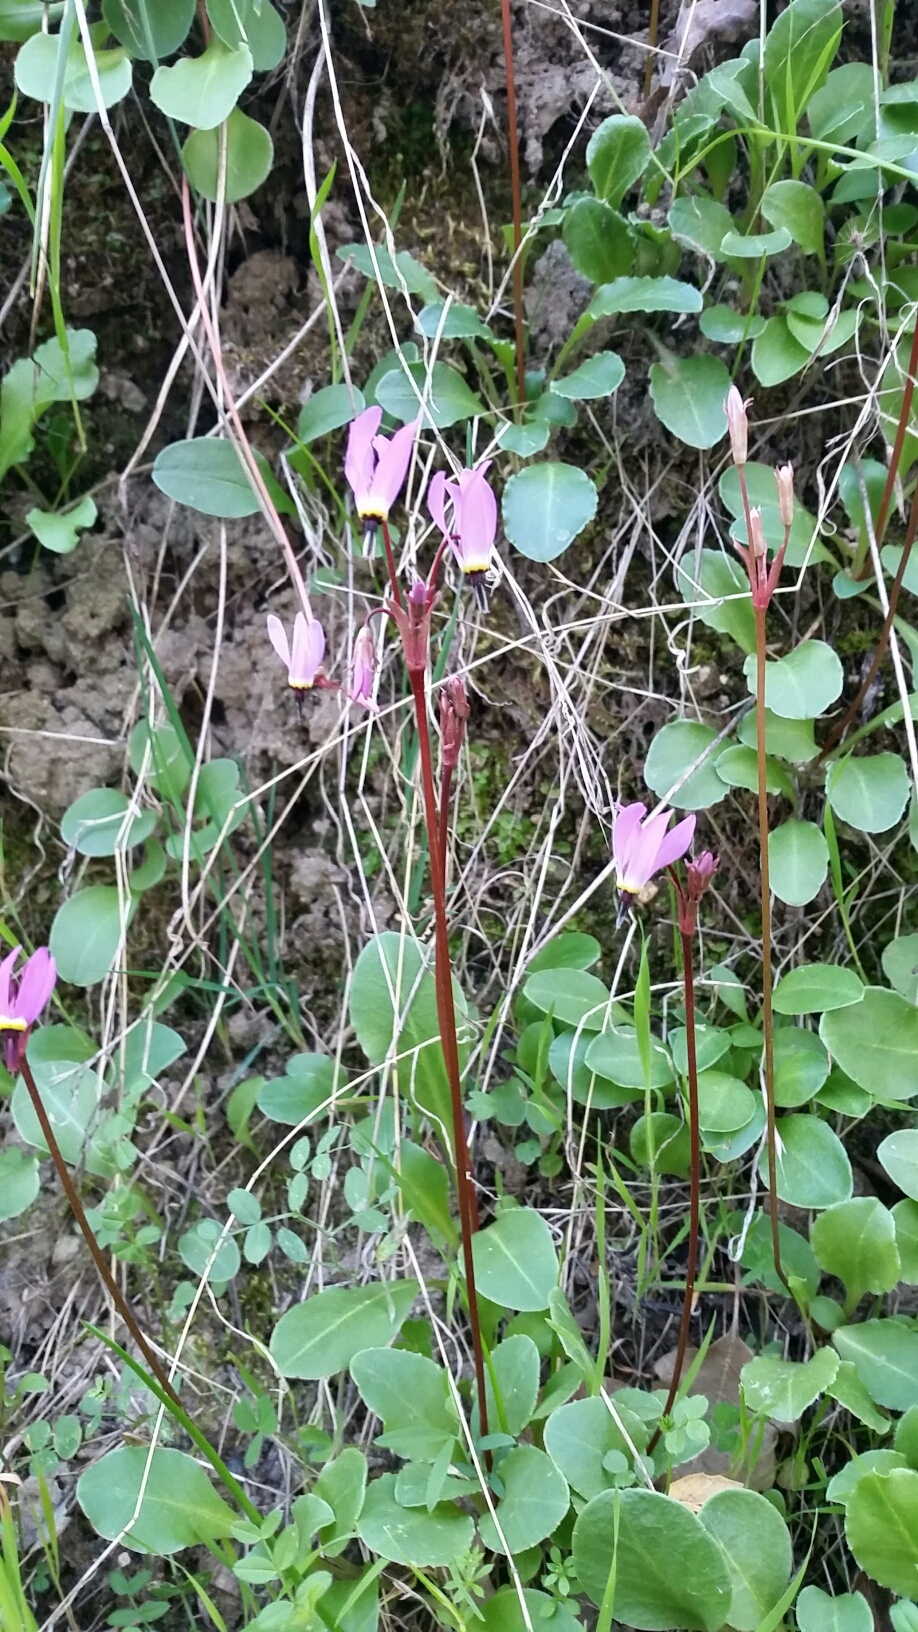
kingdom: Plantae
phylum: Tracheophyta
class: Magnoliopsida
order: Ericales
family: Primulaceae
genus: Dodecatheon
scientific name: Dodecatheon hendersonii
